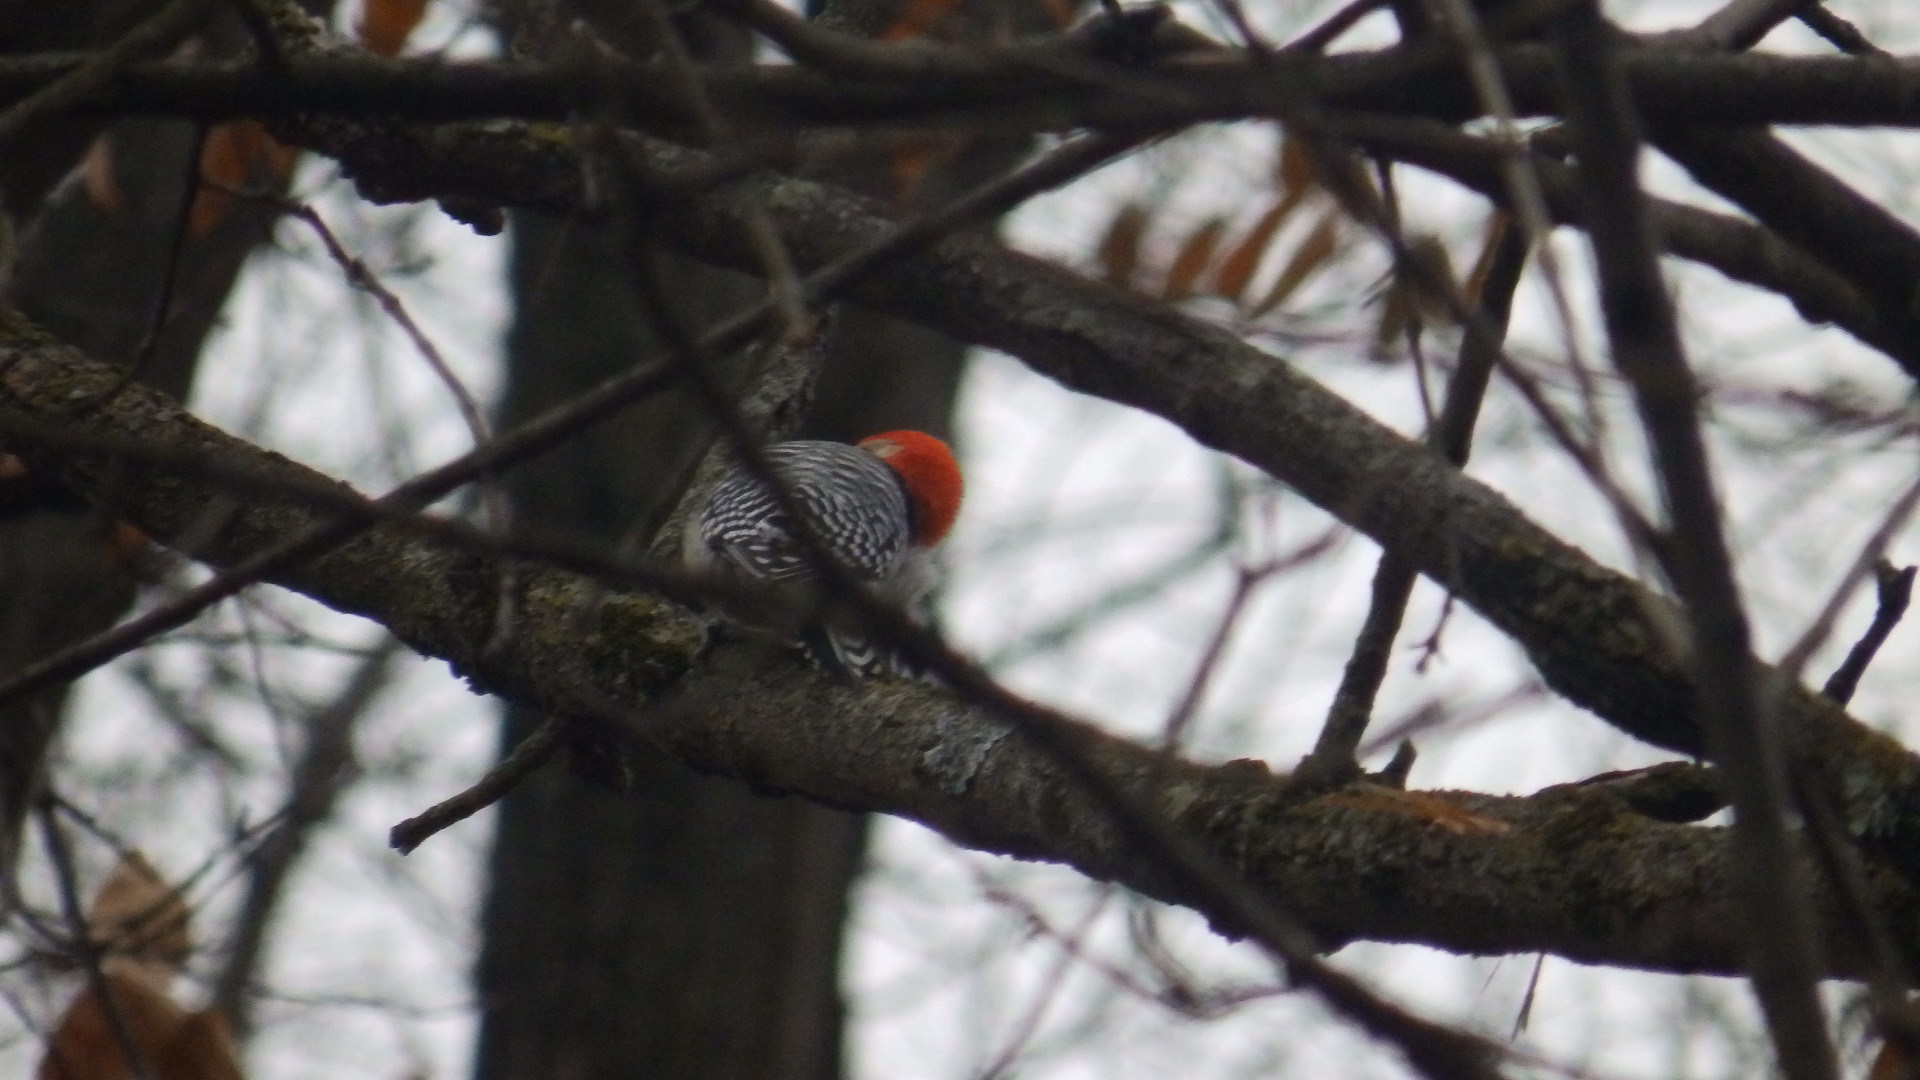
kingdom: Animalia
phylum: Chordata
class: Aves
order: Piciformes
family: Picidae
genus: Melanerpes
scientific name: Melanerpes carolinus
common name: Red-bellied woodpecker
